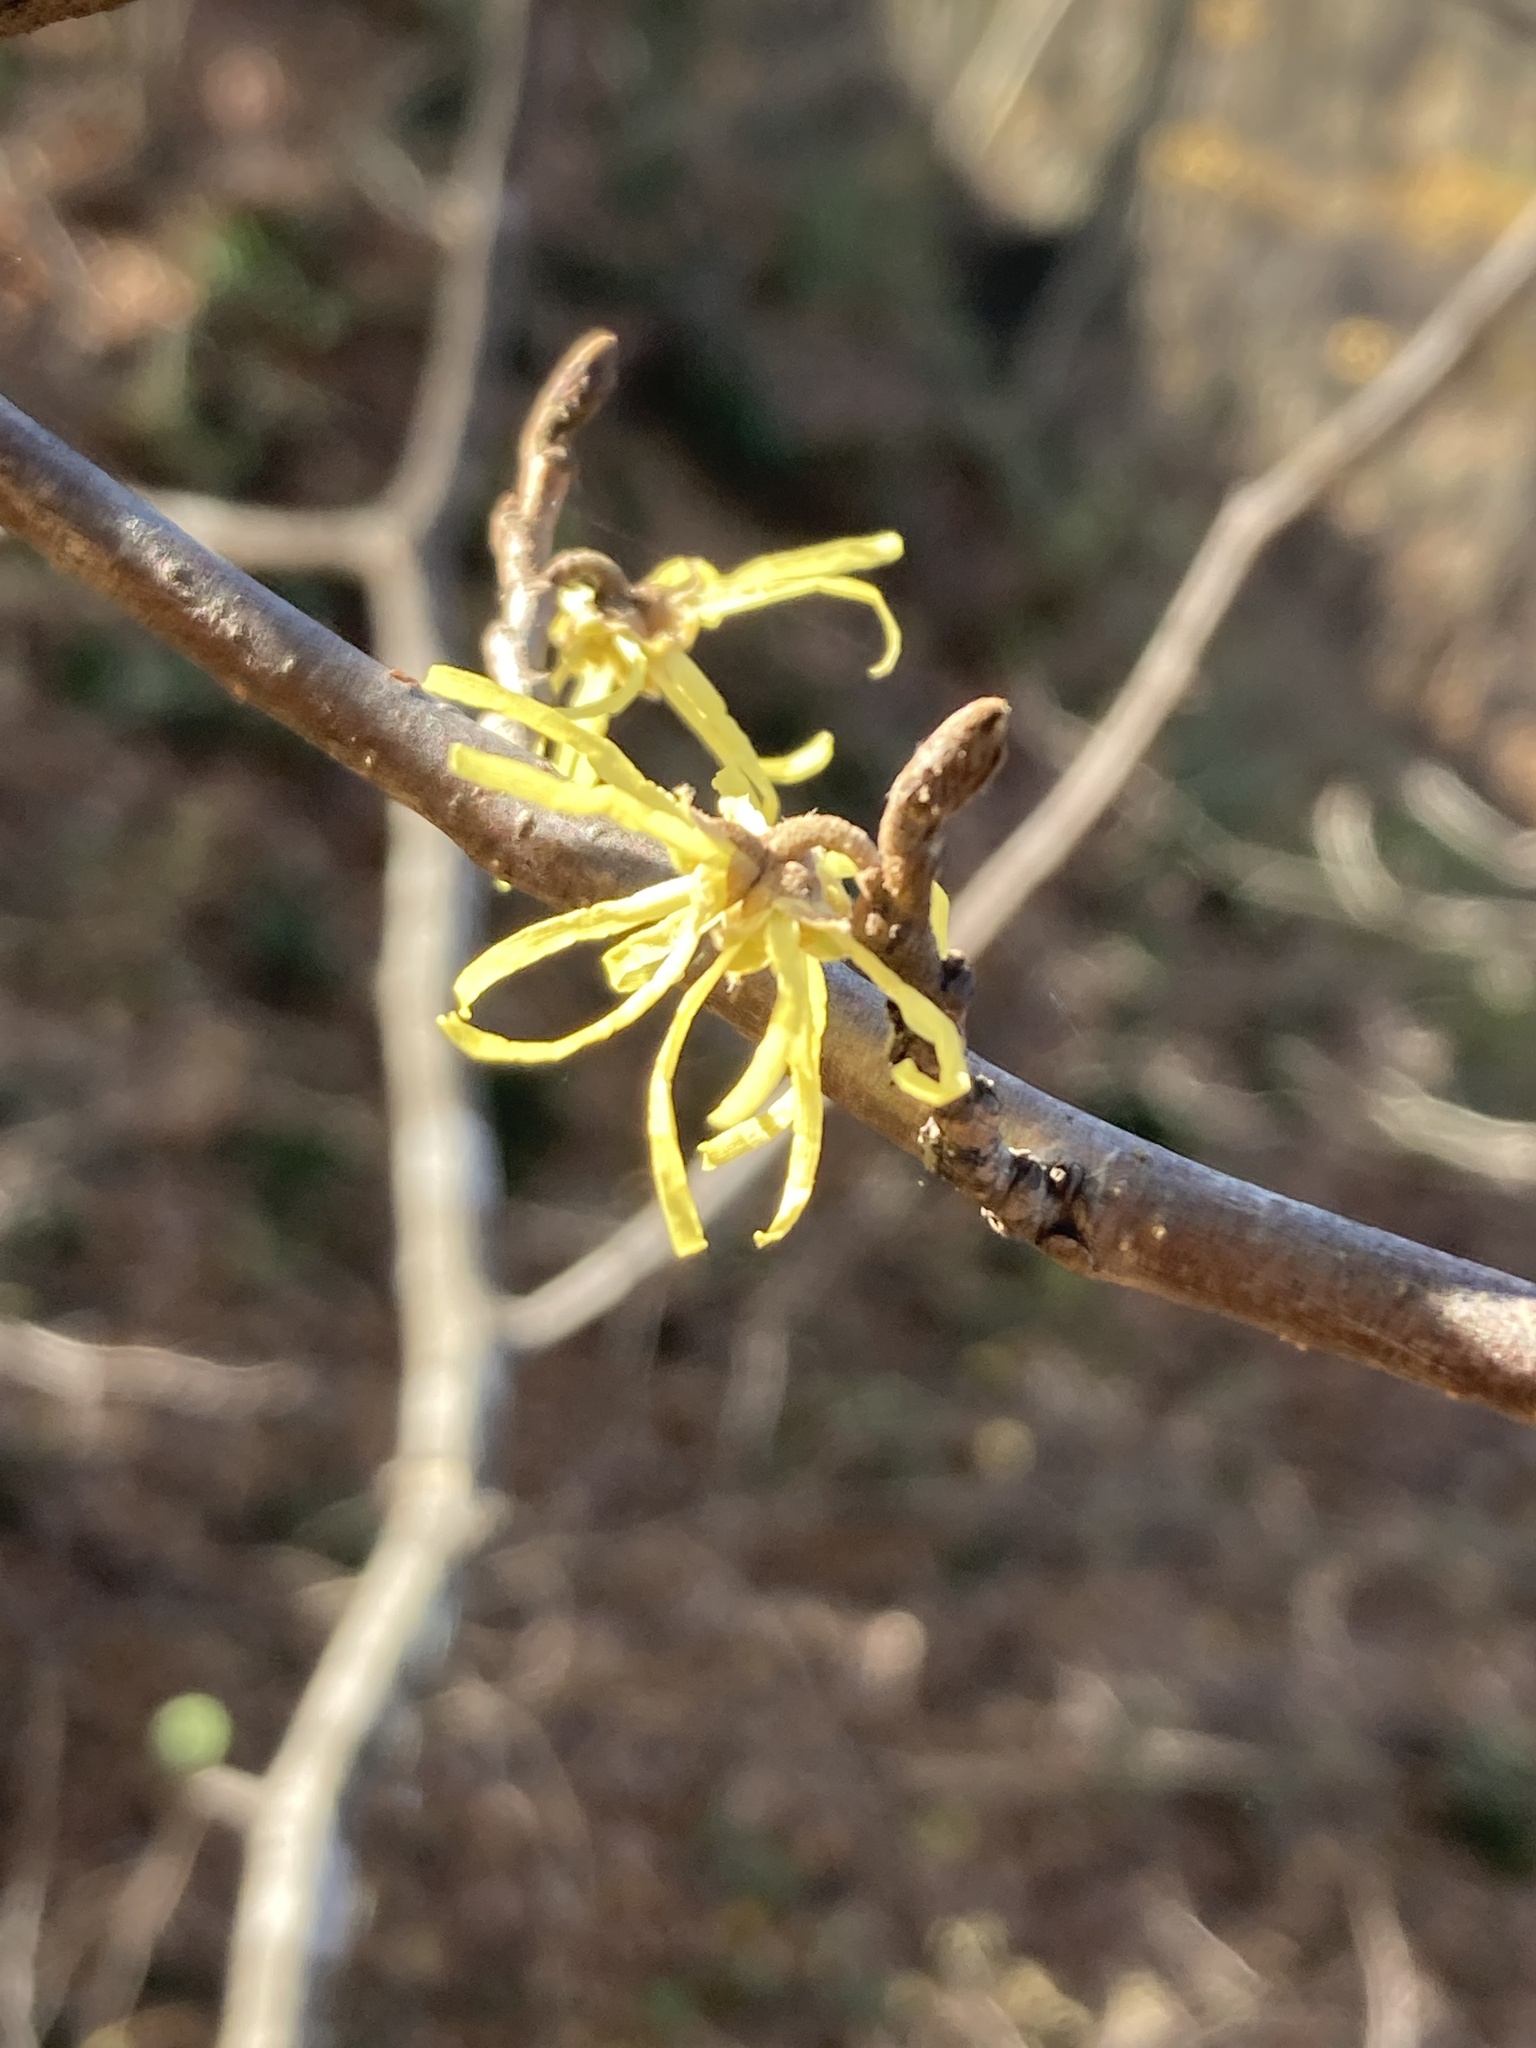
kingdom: Plantae
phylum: Tracheophyta
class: Magnoliopsida
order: Saxifragales
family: Hamamelidaceae
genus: Hamamelis
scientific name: Hamamelis virginiana
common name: Witch-hazel
